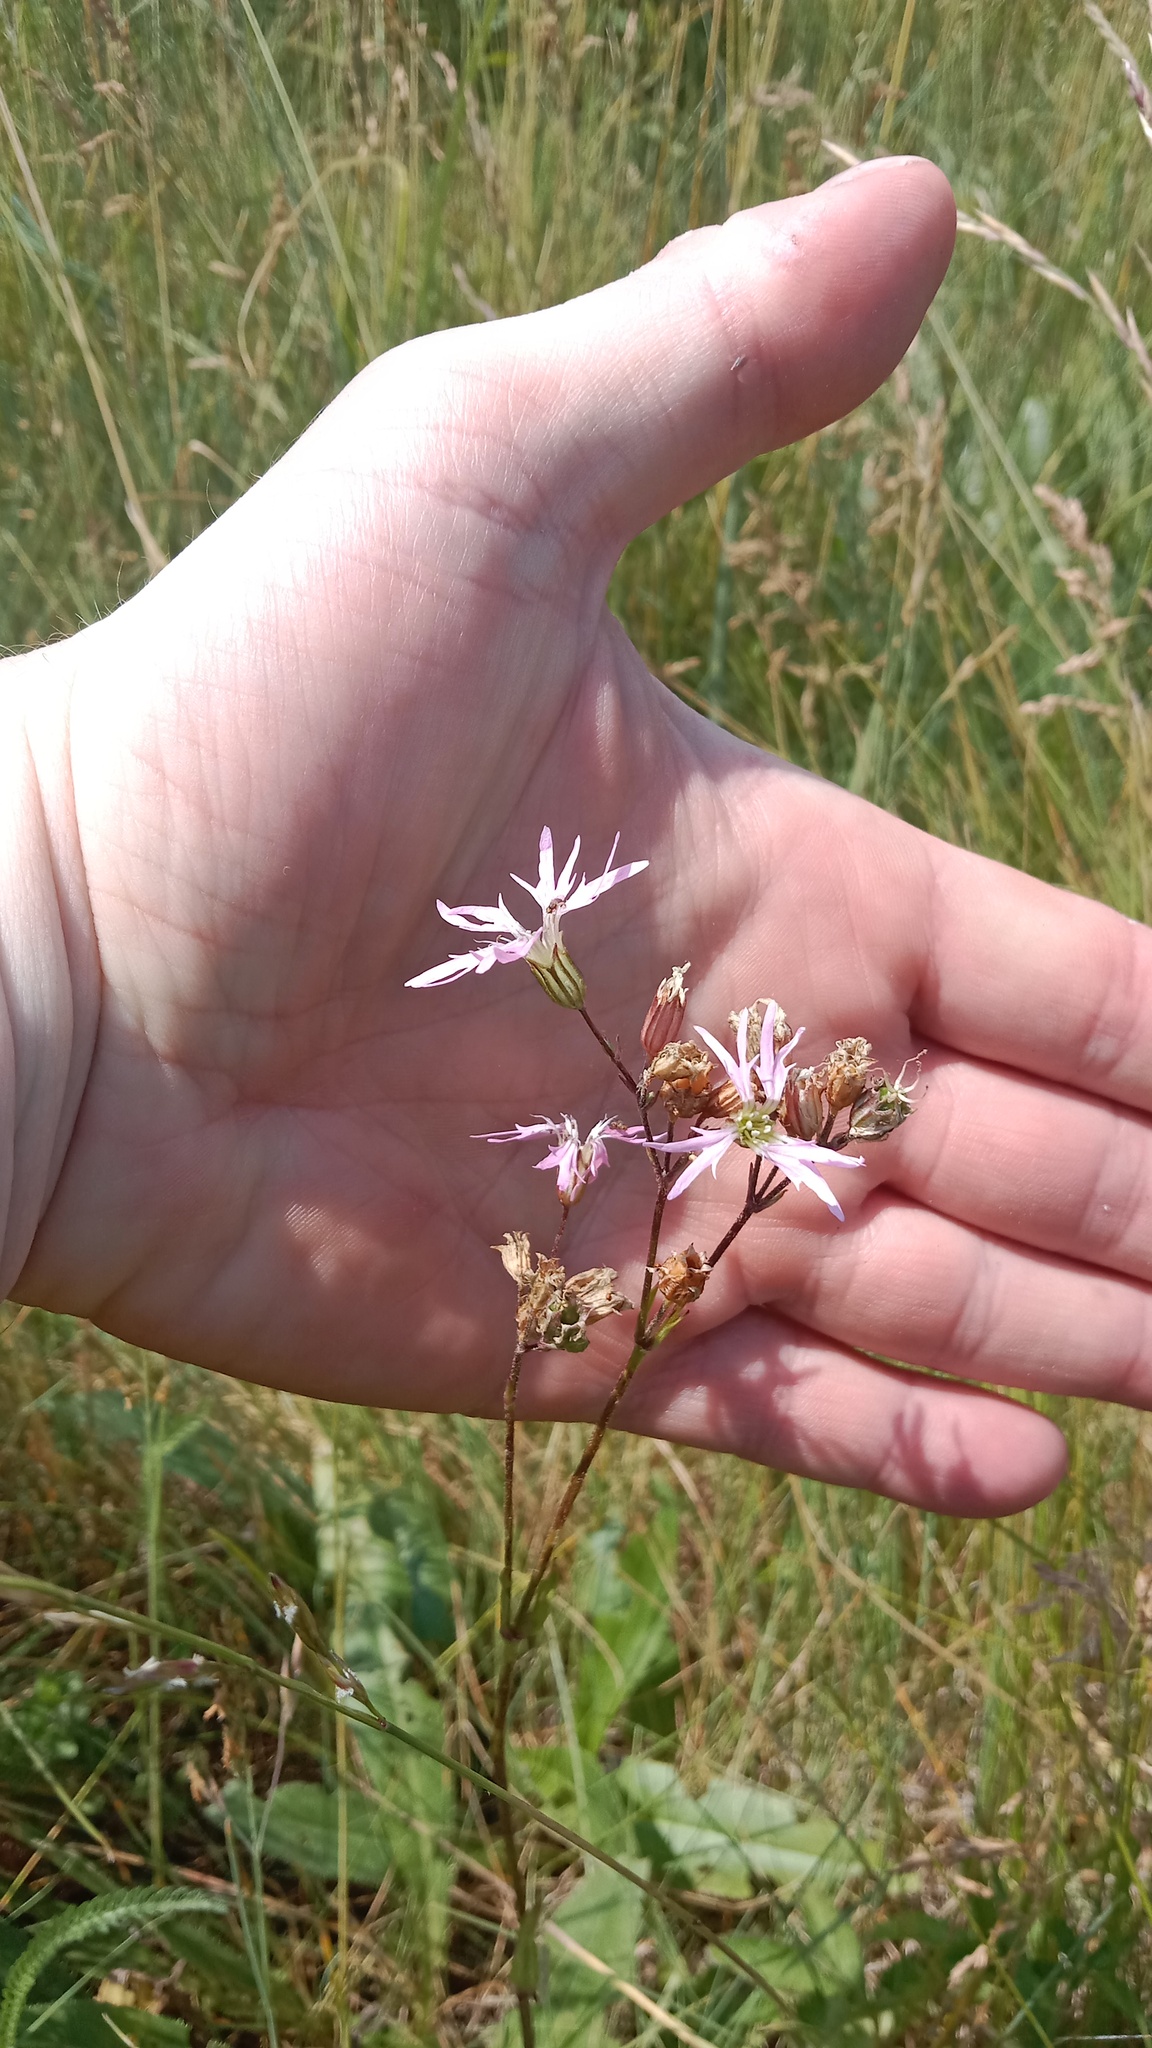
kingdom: Plantae
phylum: Tracheophyta
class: Magnoliopsida
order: Caryophyllales
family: Caryophyllaceae
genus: Silene
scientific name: Silene flos-cuculi
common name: Ragged-robin
